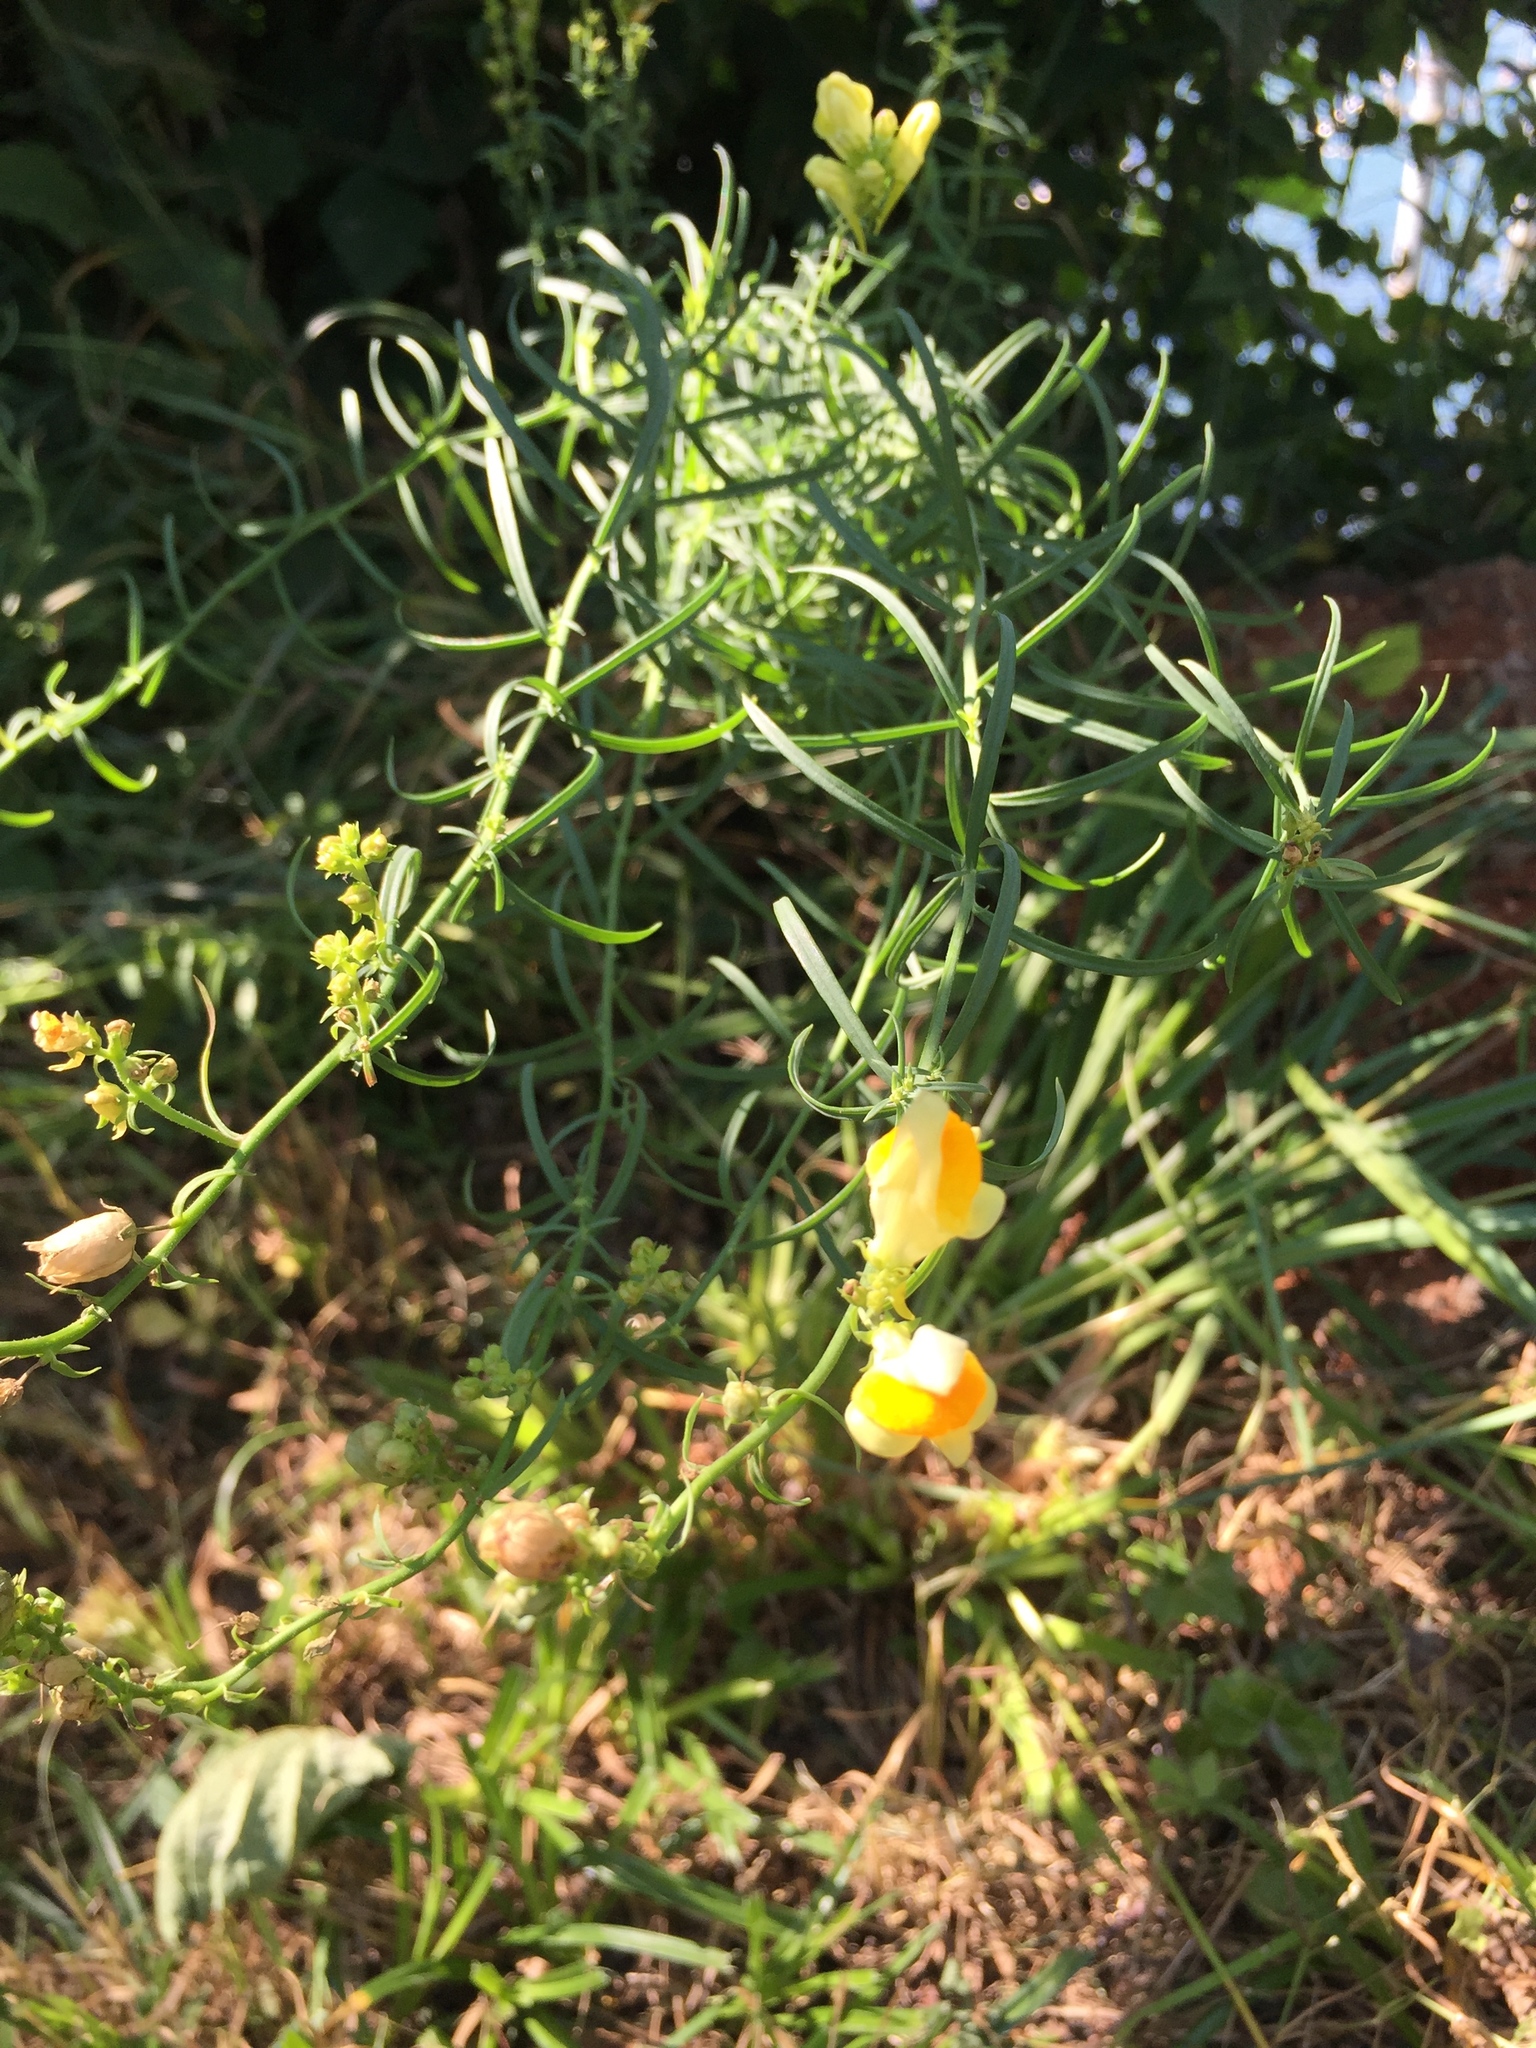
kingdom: Plantae
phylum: Tracheophyta
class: Magnoliopsida
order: Lamiales
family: Plantaginaceae
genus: Linaria
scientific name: Linaria vulgaris
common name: Butter and eggs
